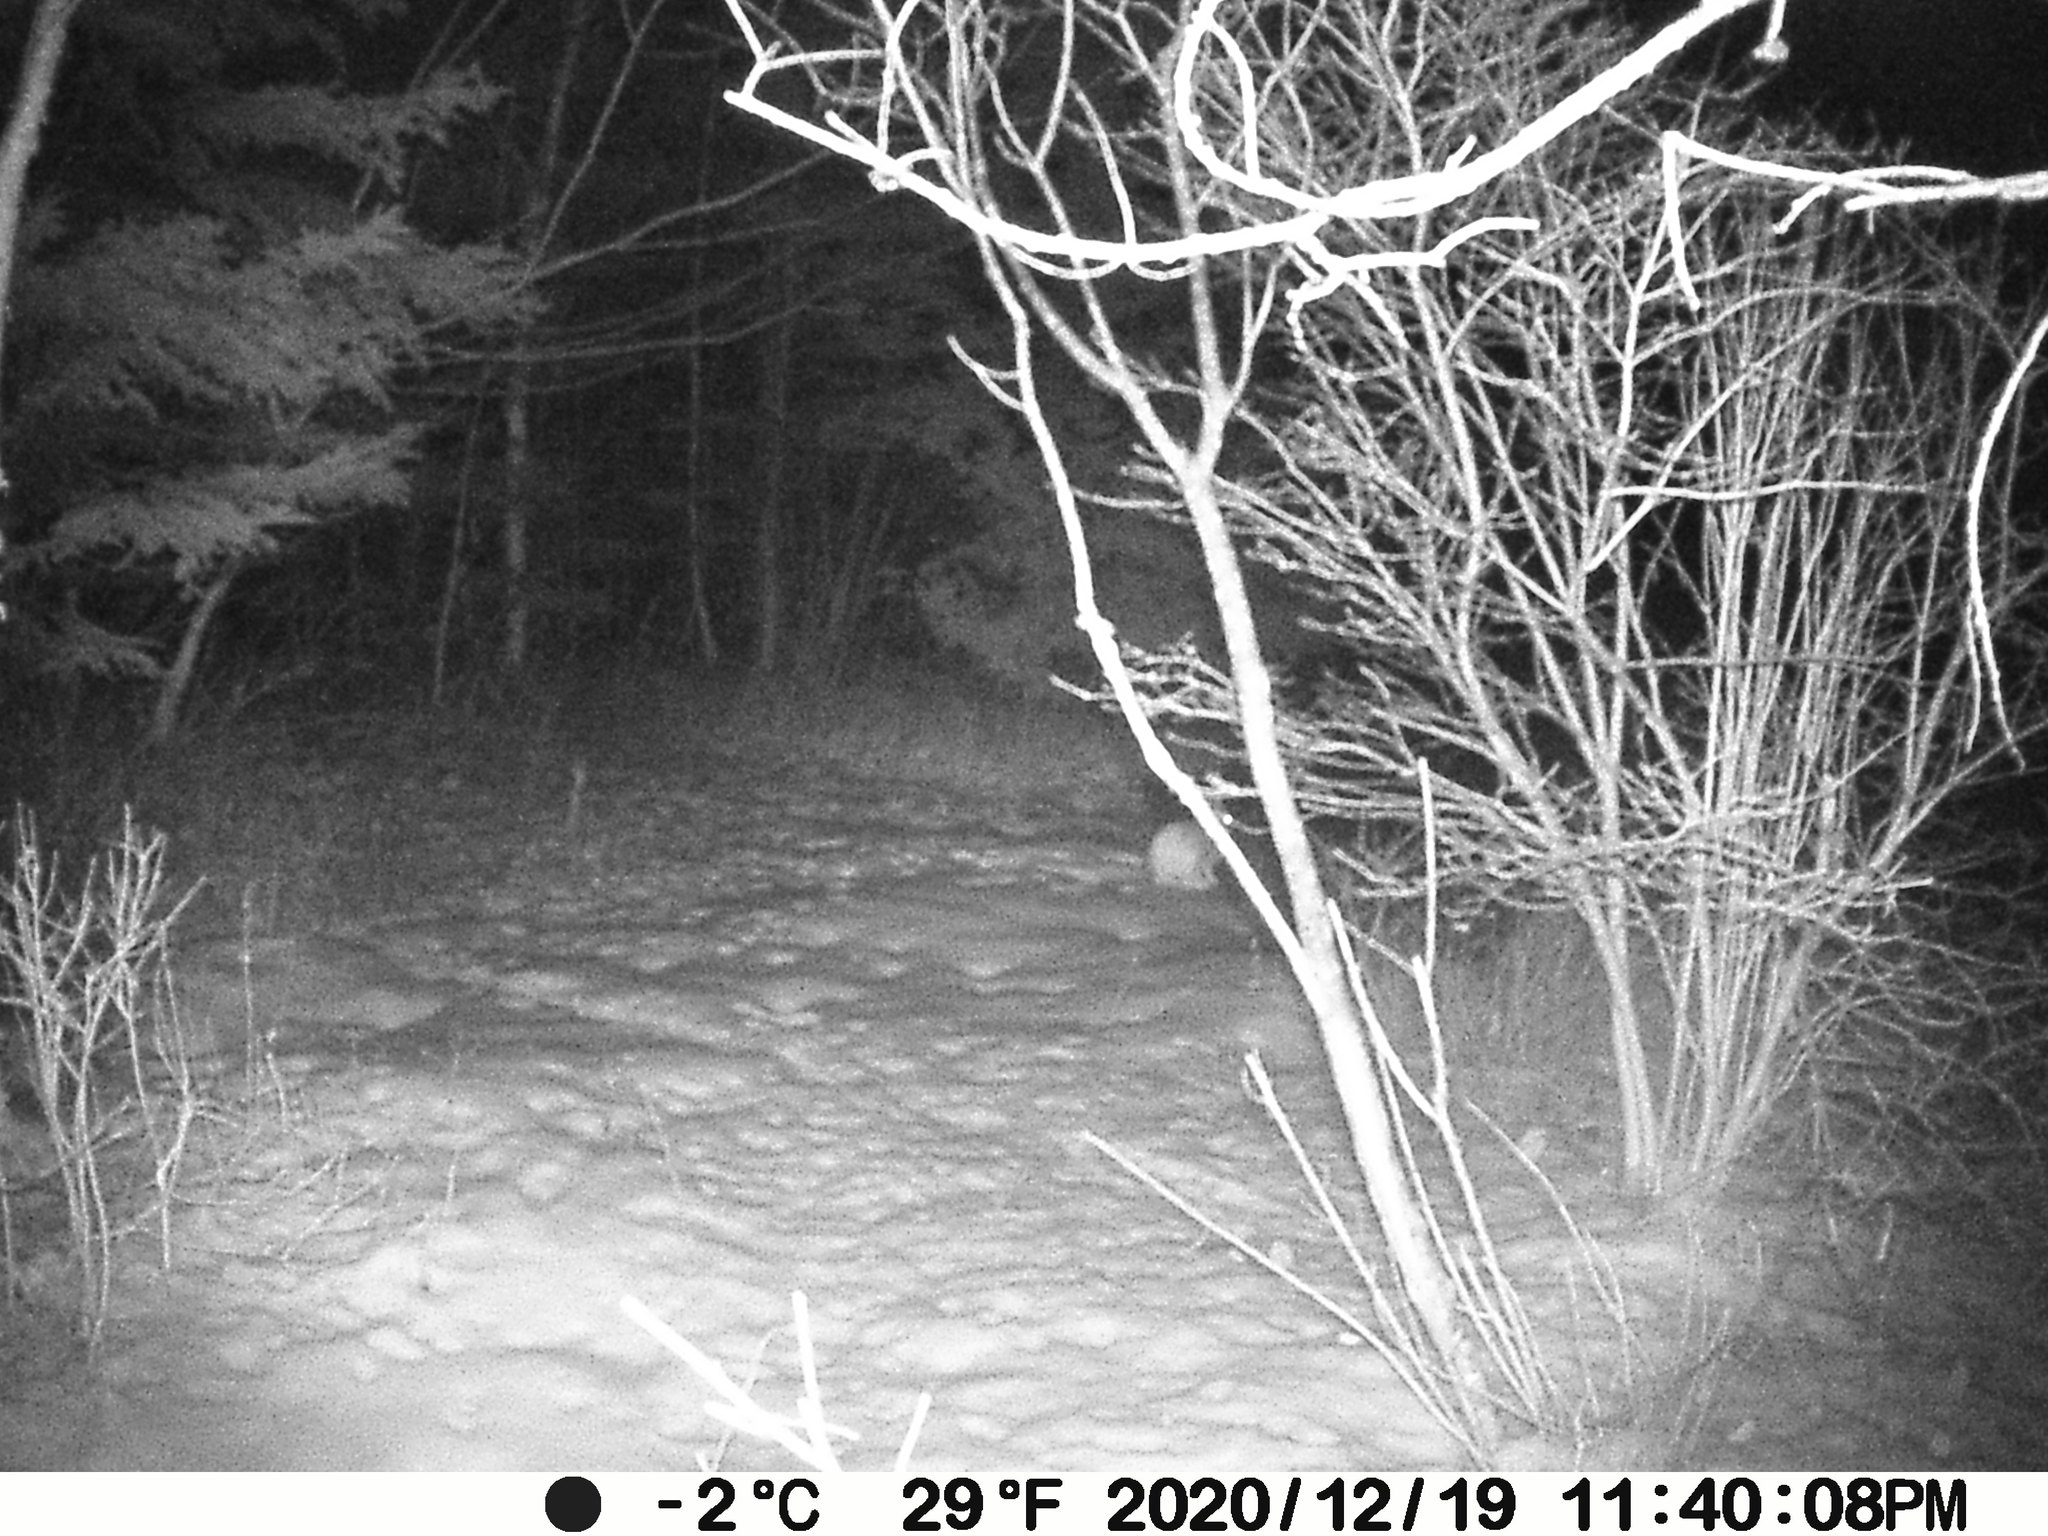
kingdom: Animalia
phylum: Chordata
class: Mammalia
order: Lagomorpha
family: Leporidae
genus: Lepus
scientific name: Lepus americanus
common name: Snowshoe hare
